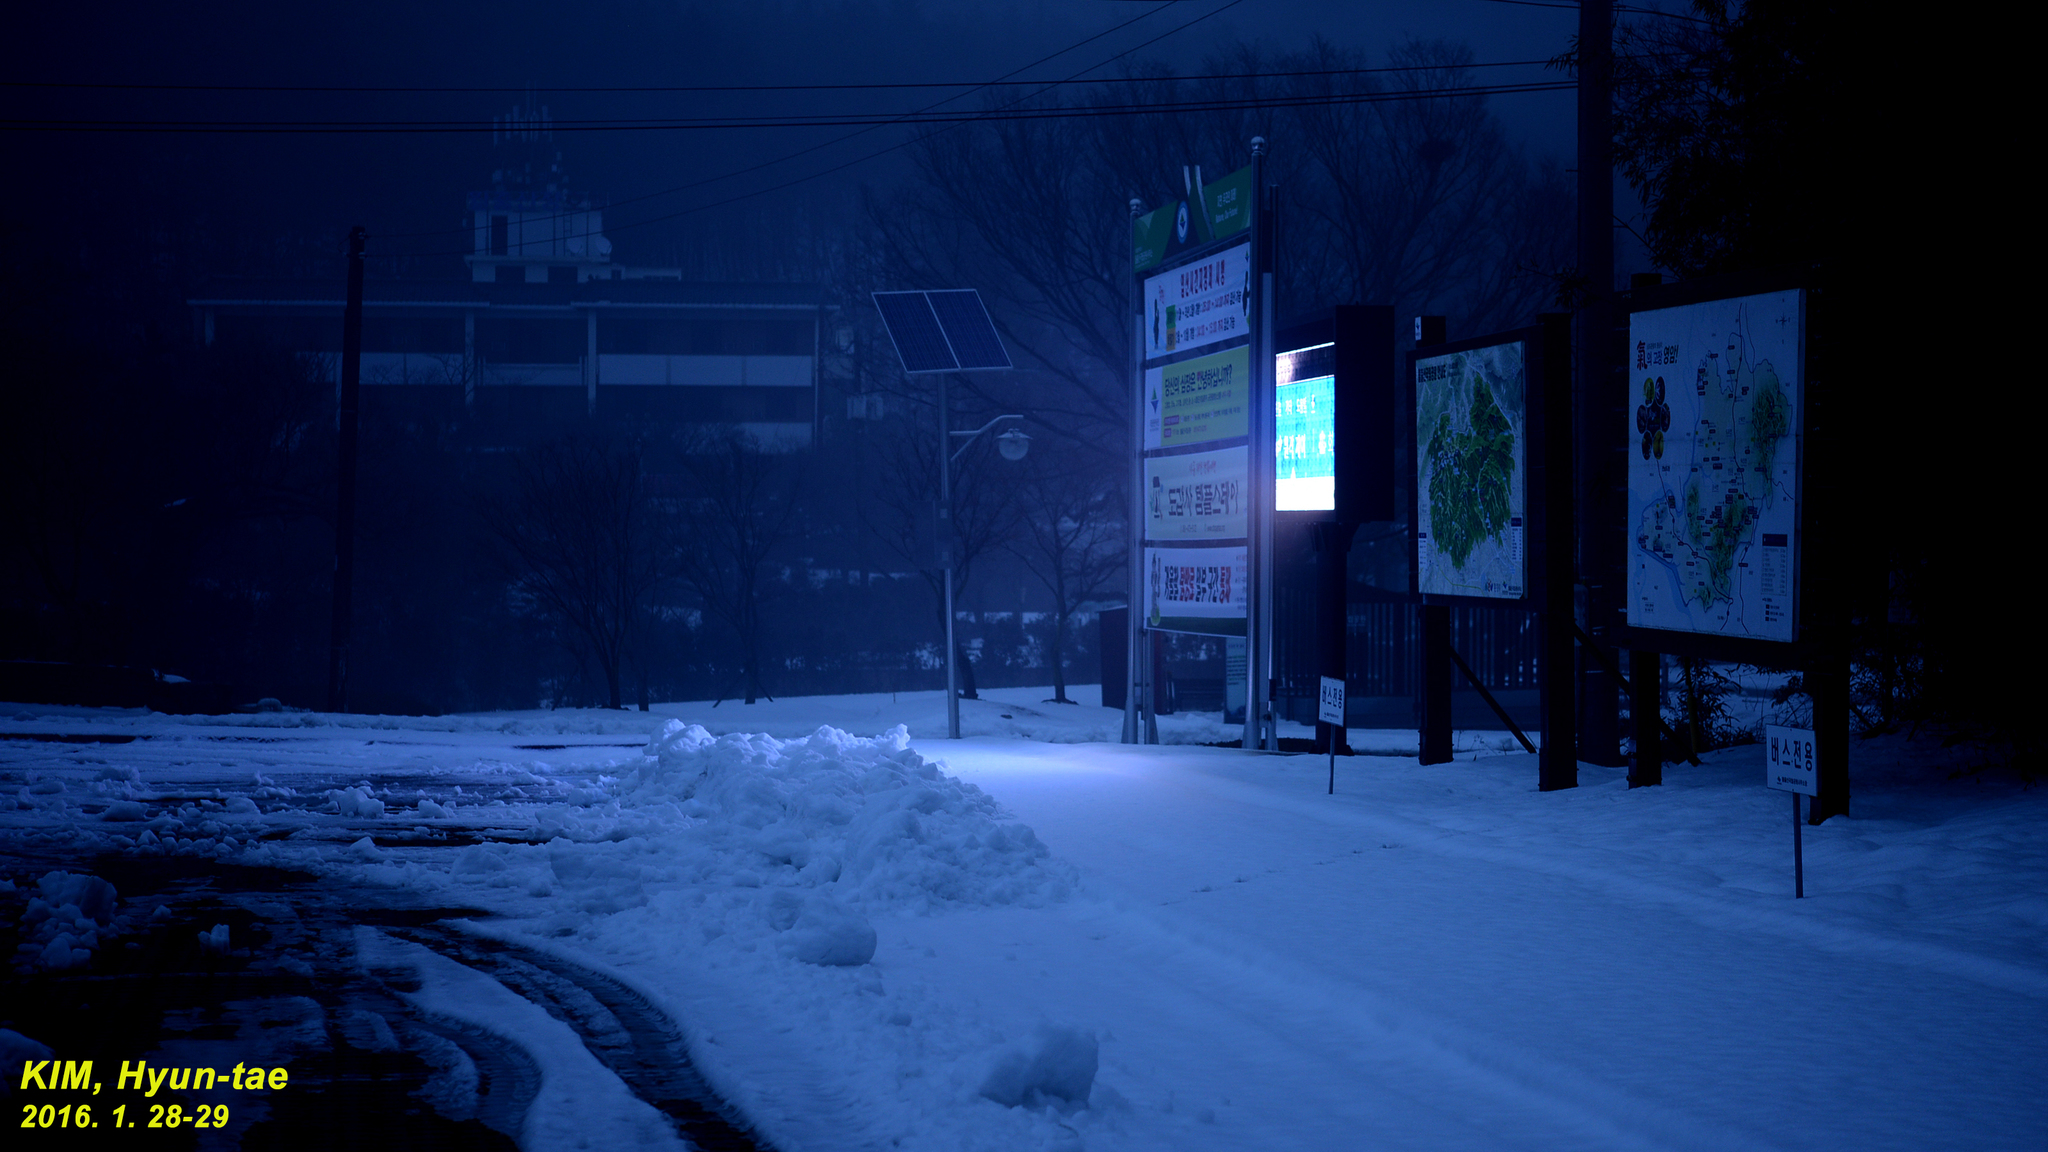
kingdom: Animalia
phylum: Chordata
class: Amphibia
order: Anura
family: Ranidae
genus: Rana
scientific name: Rana uenoi
